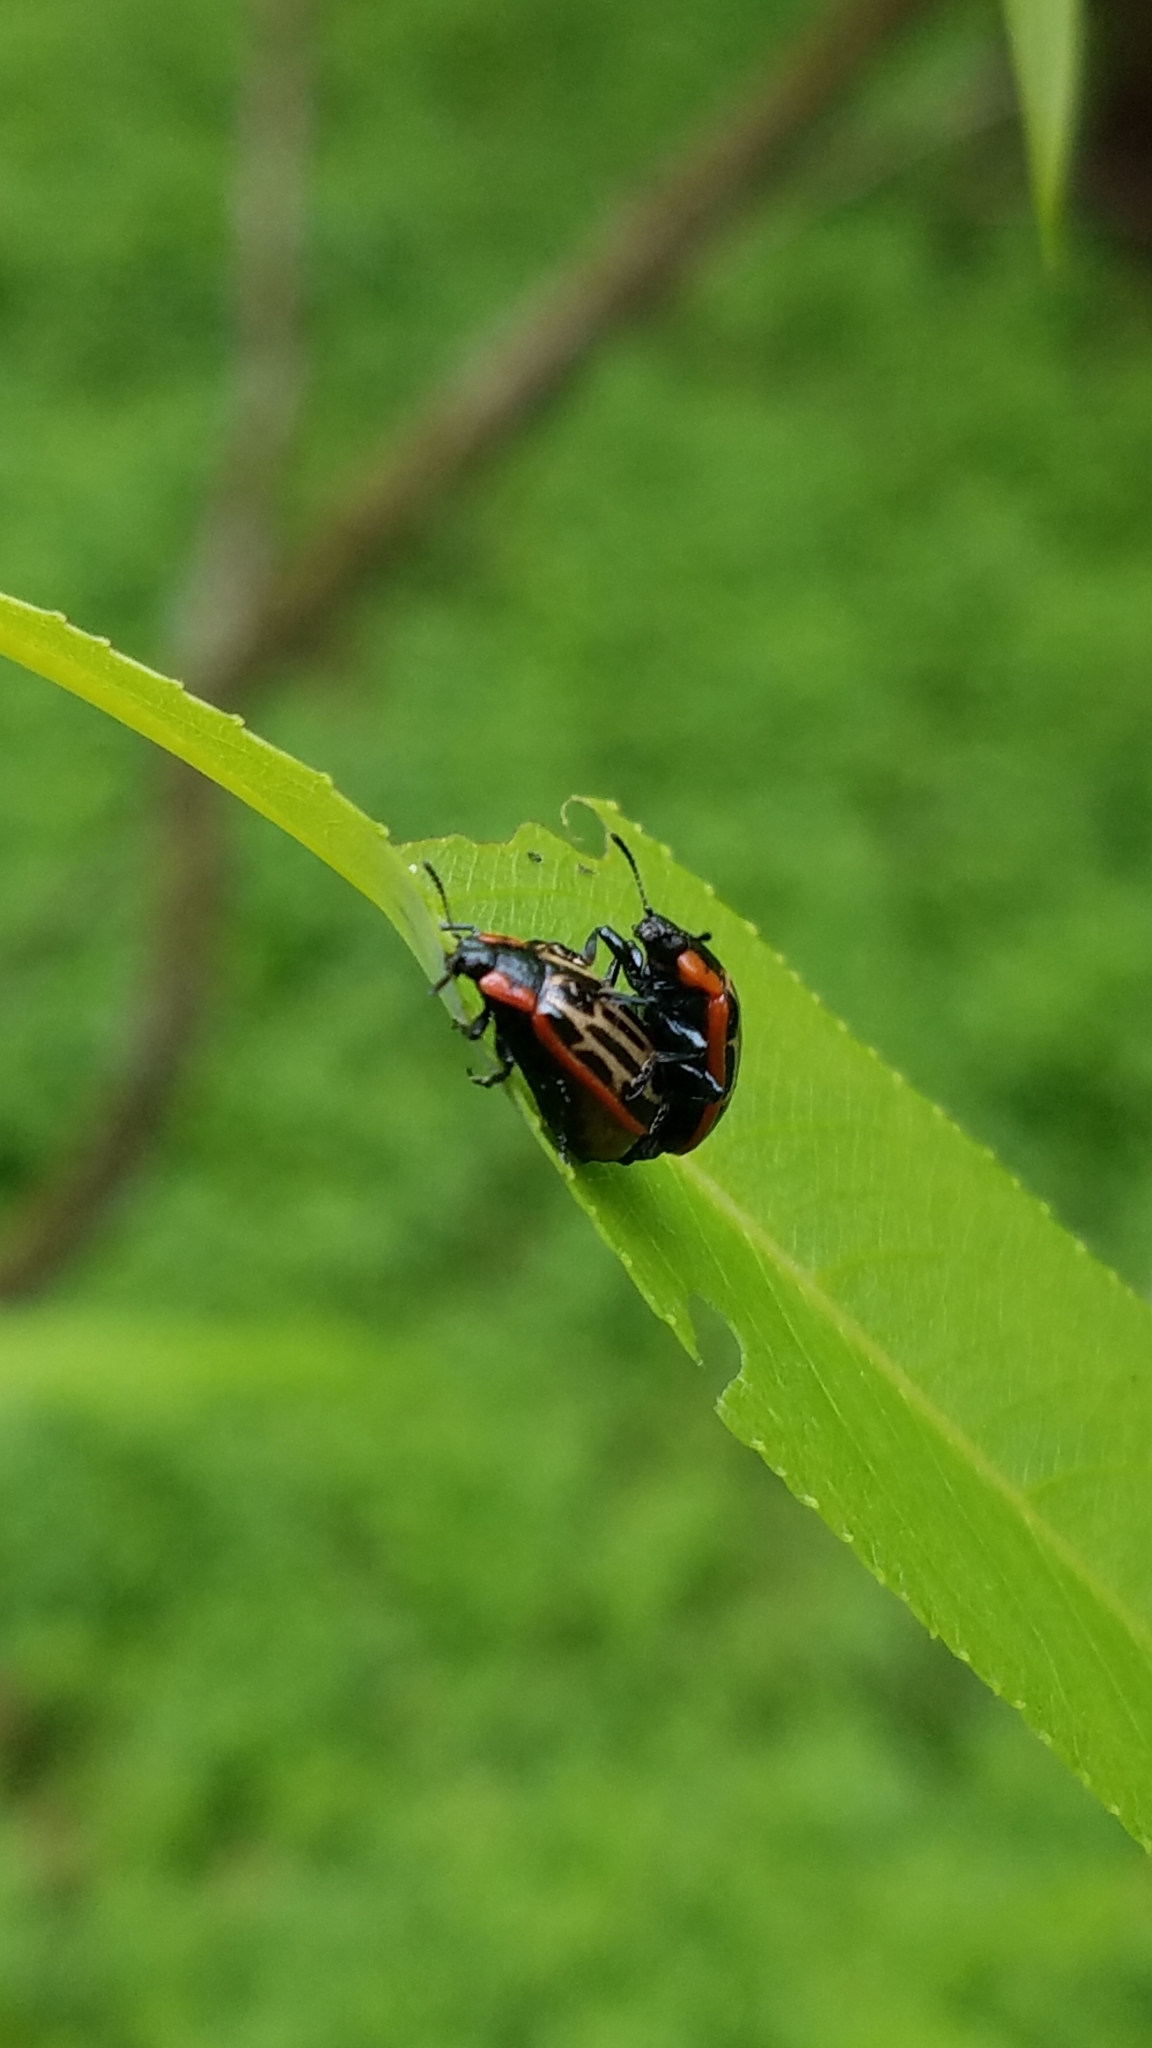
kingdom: Animalia
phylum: Arthropoda
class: Insecta
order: Coleoptera
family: Chrysomelidae
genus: Aethiopocassis
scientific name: Aethiopocassis scripta
